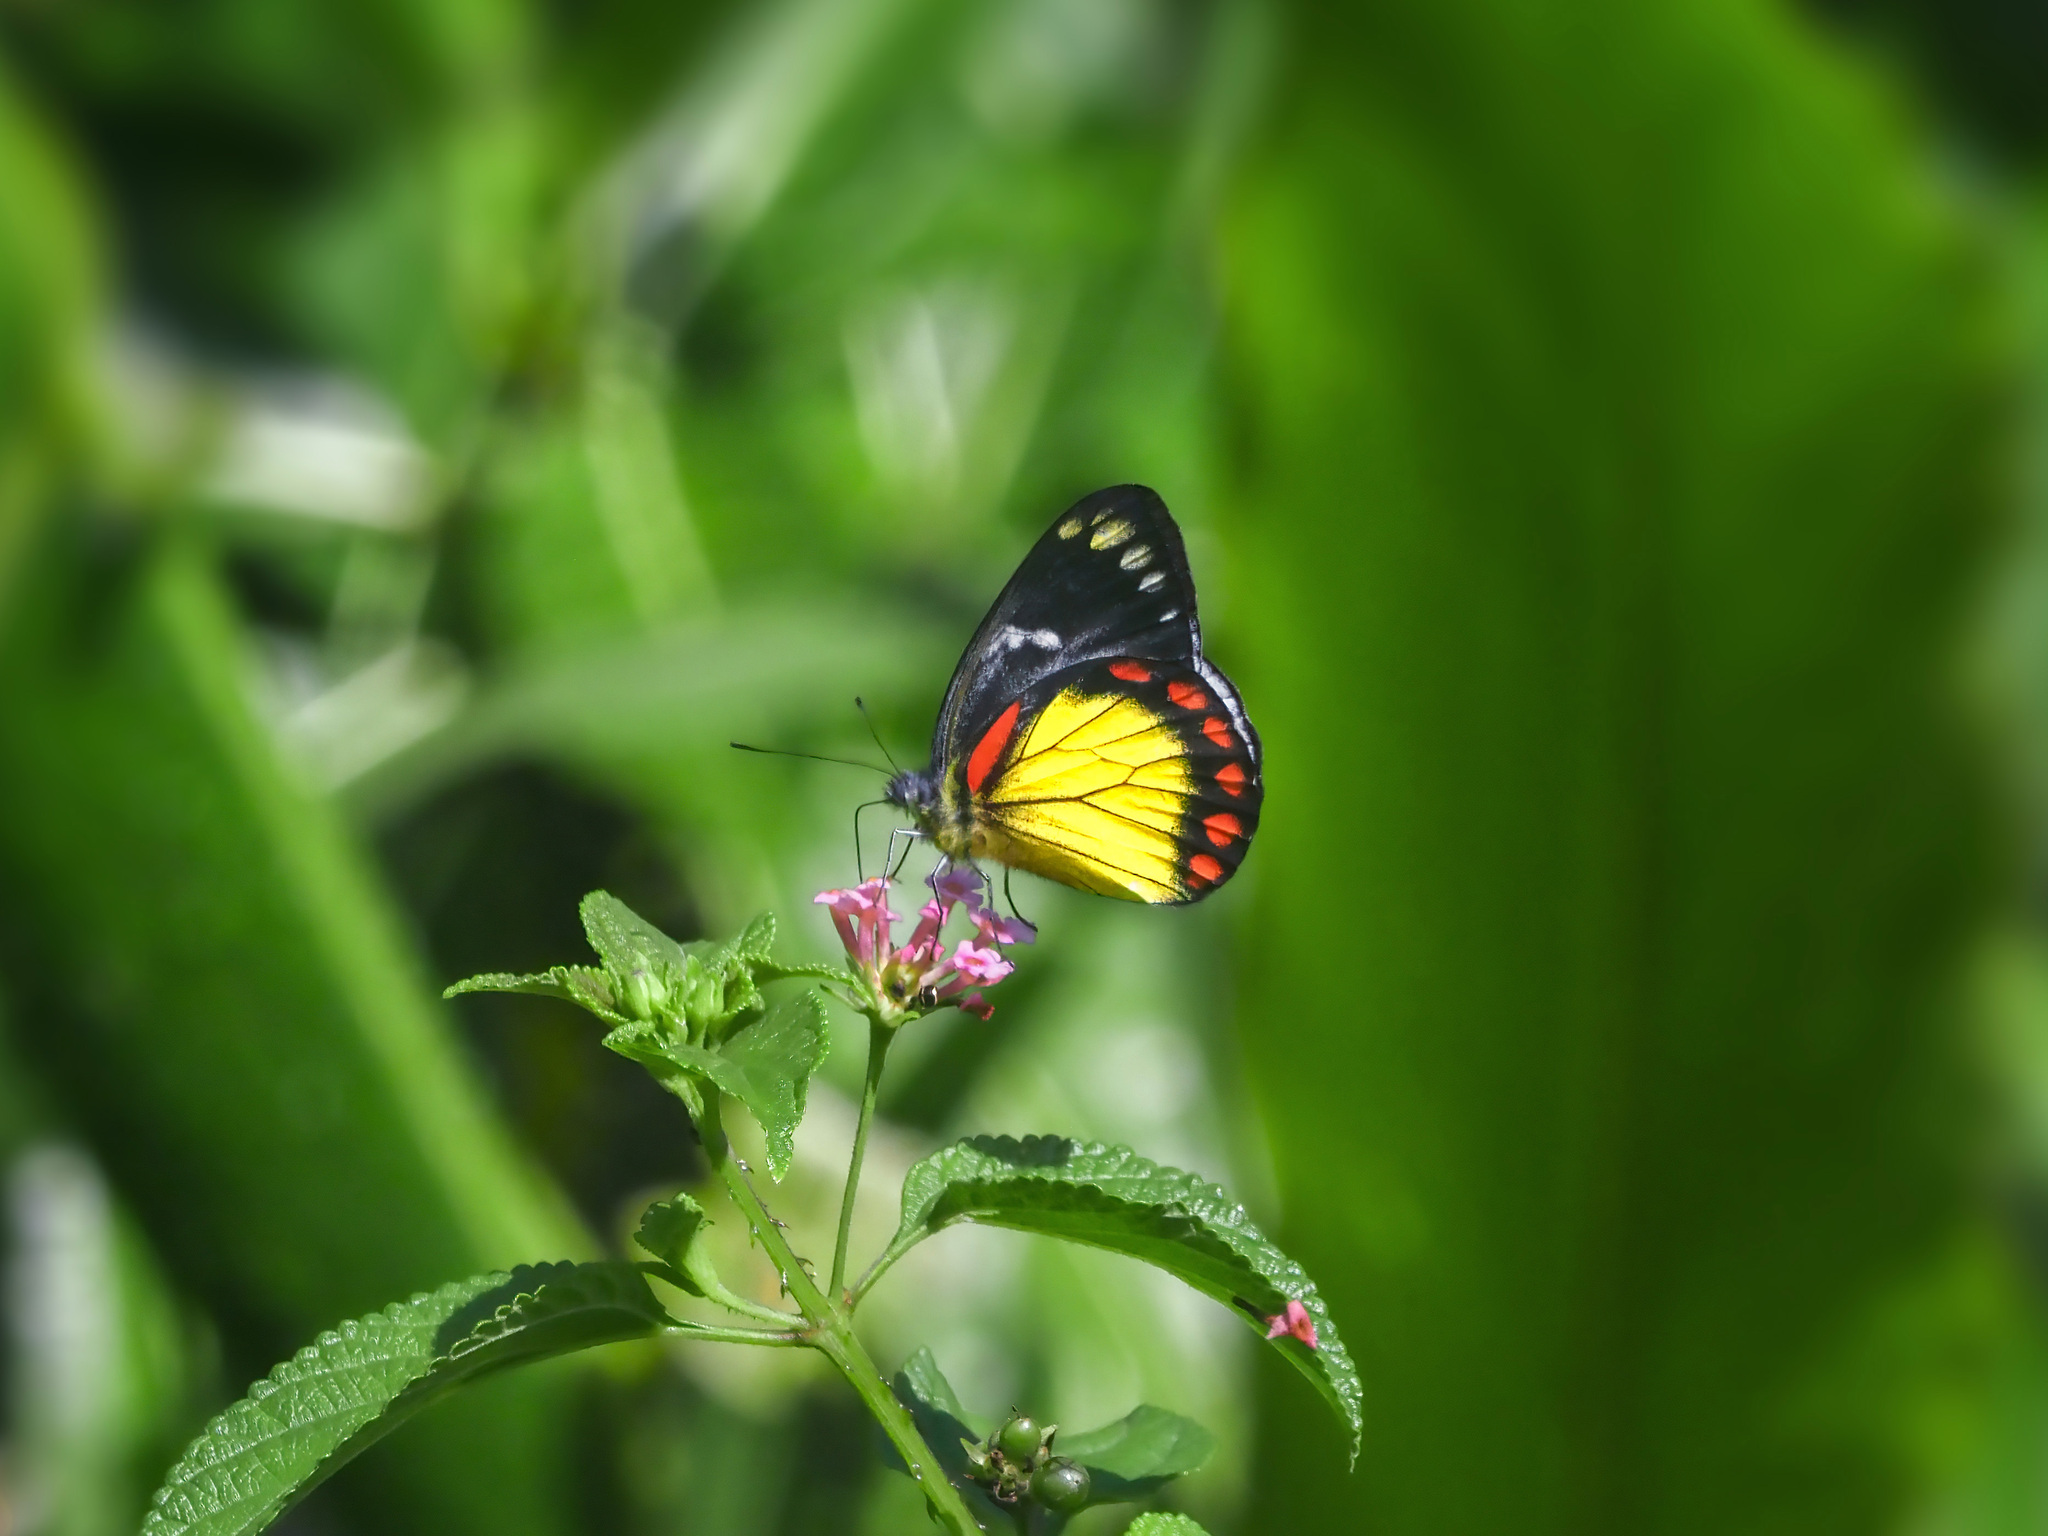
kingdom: Animalia
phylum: Arthropoda
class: Insecta
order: Lepidoptera
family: Pieridae
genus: Delias
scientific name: Delias eumolpe
